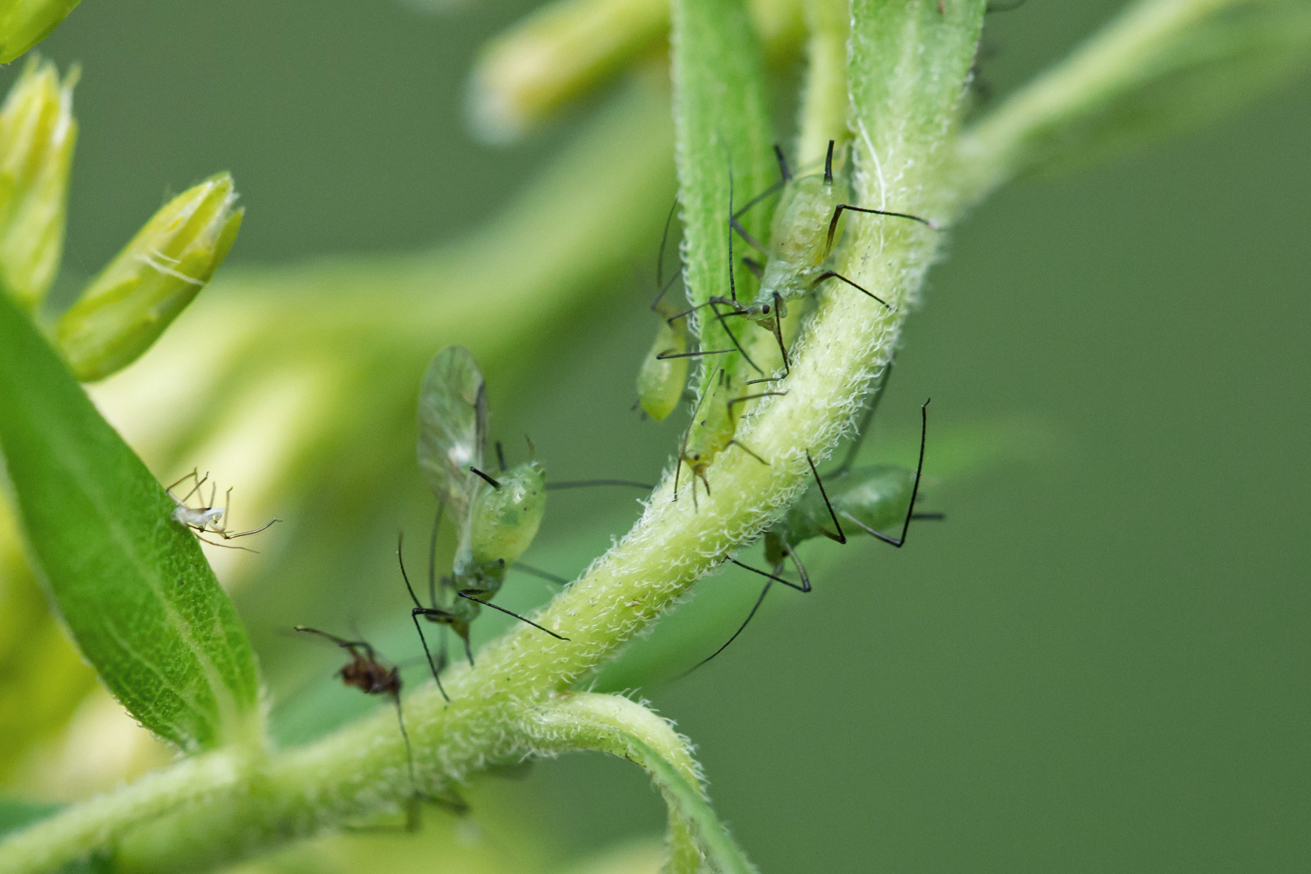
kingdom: Animalia
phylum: Arthropoda
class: Insecta
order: Hemiptera
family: Aphididae
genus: Uroleucon
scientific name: Uroleucon caligatum
